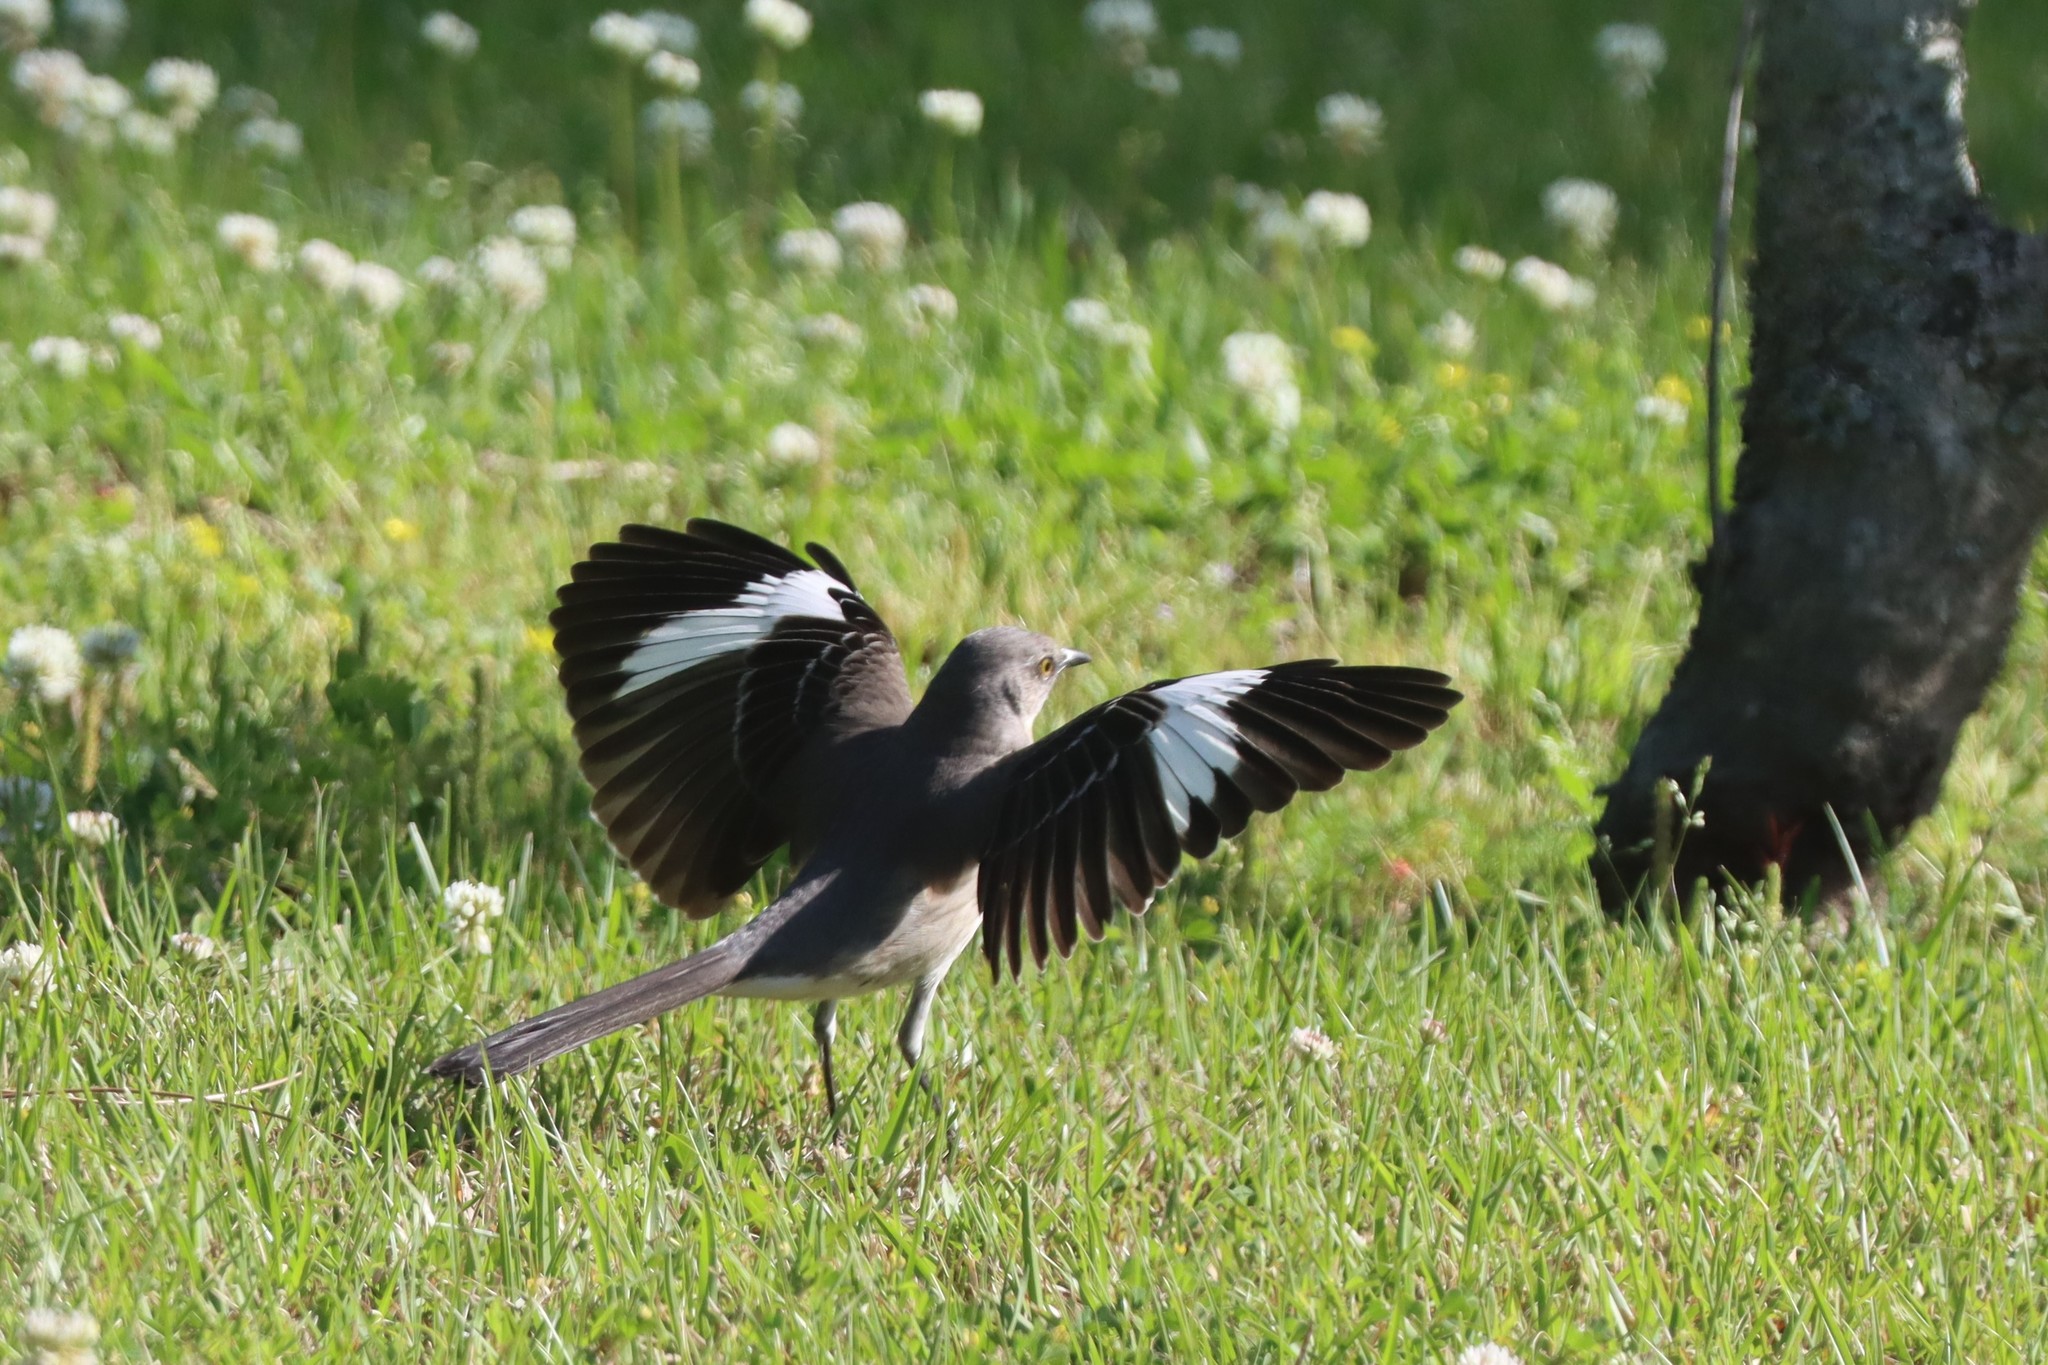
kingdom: Animalia
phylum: Chordata
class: Aves
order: Passeriformes
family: Mimidae
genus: Mimus
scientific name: Mimus polyglottos
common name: Northern mockingbird
